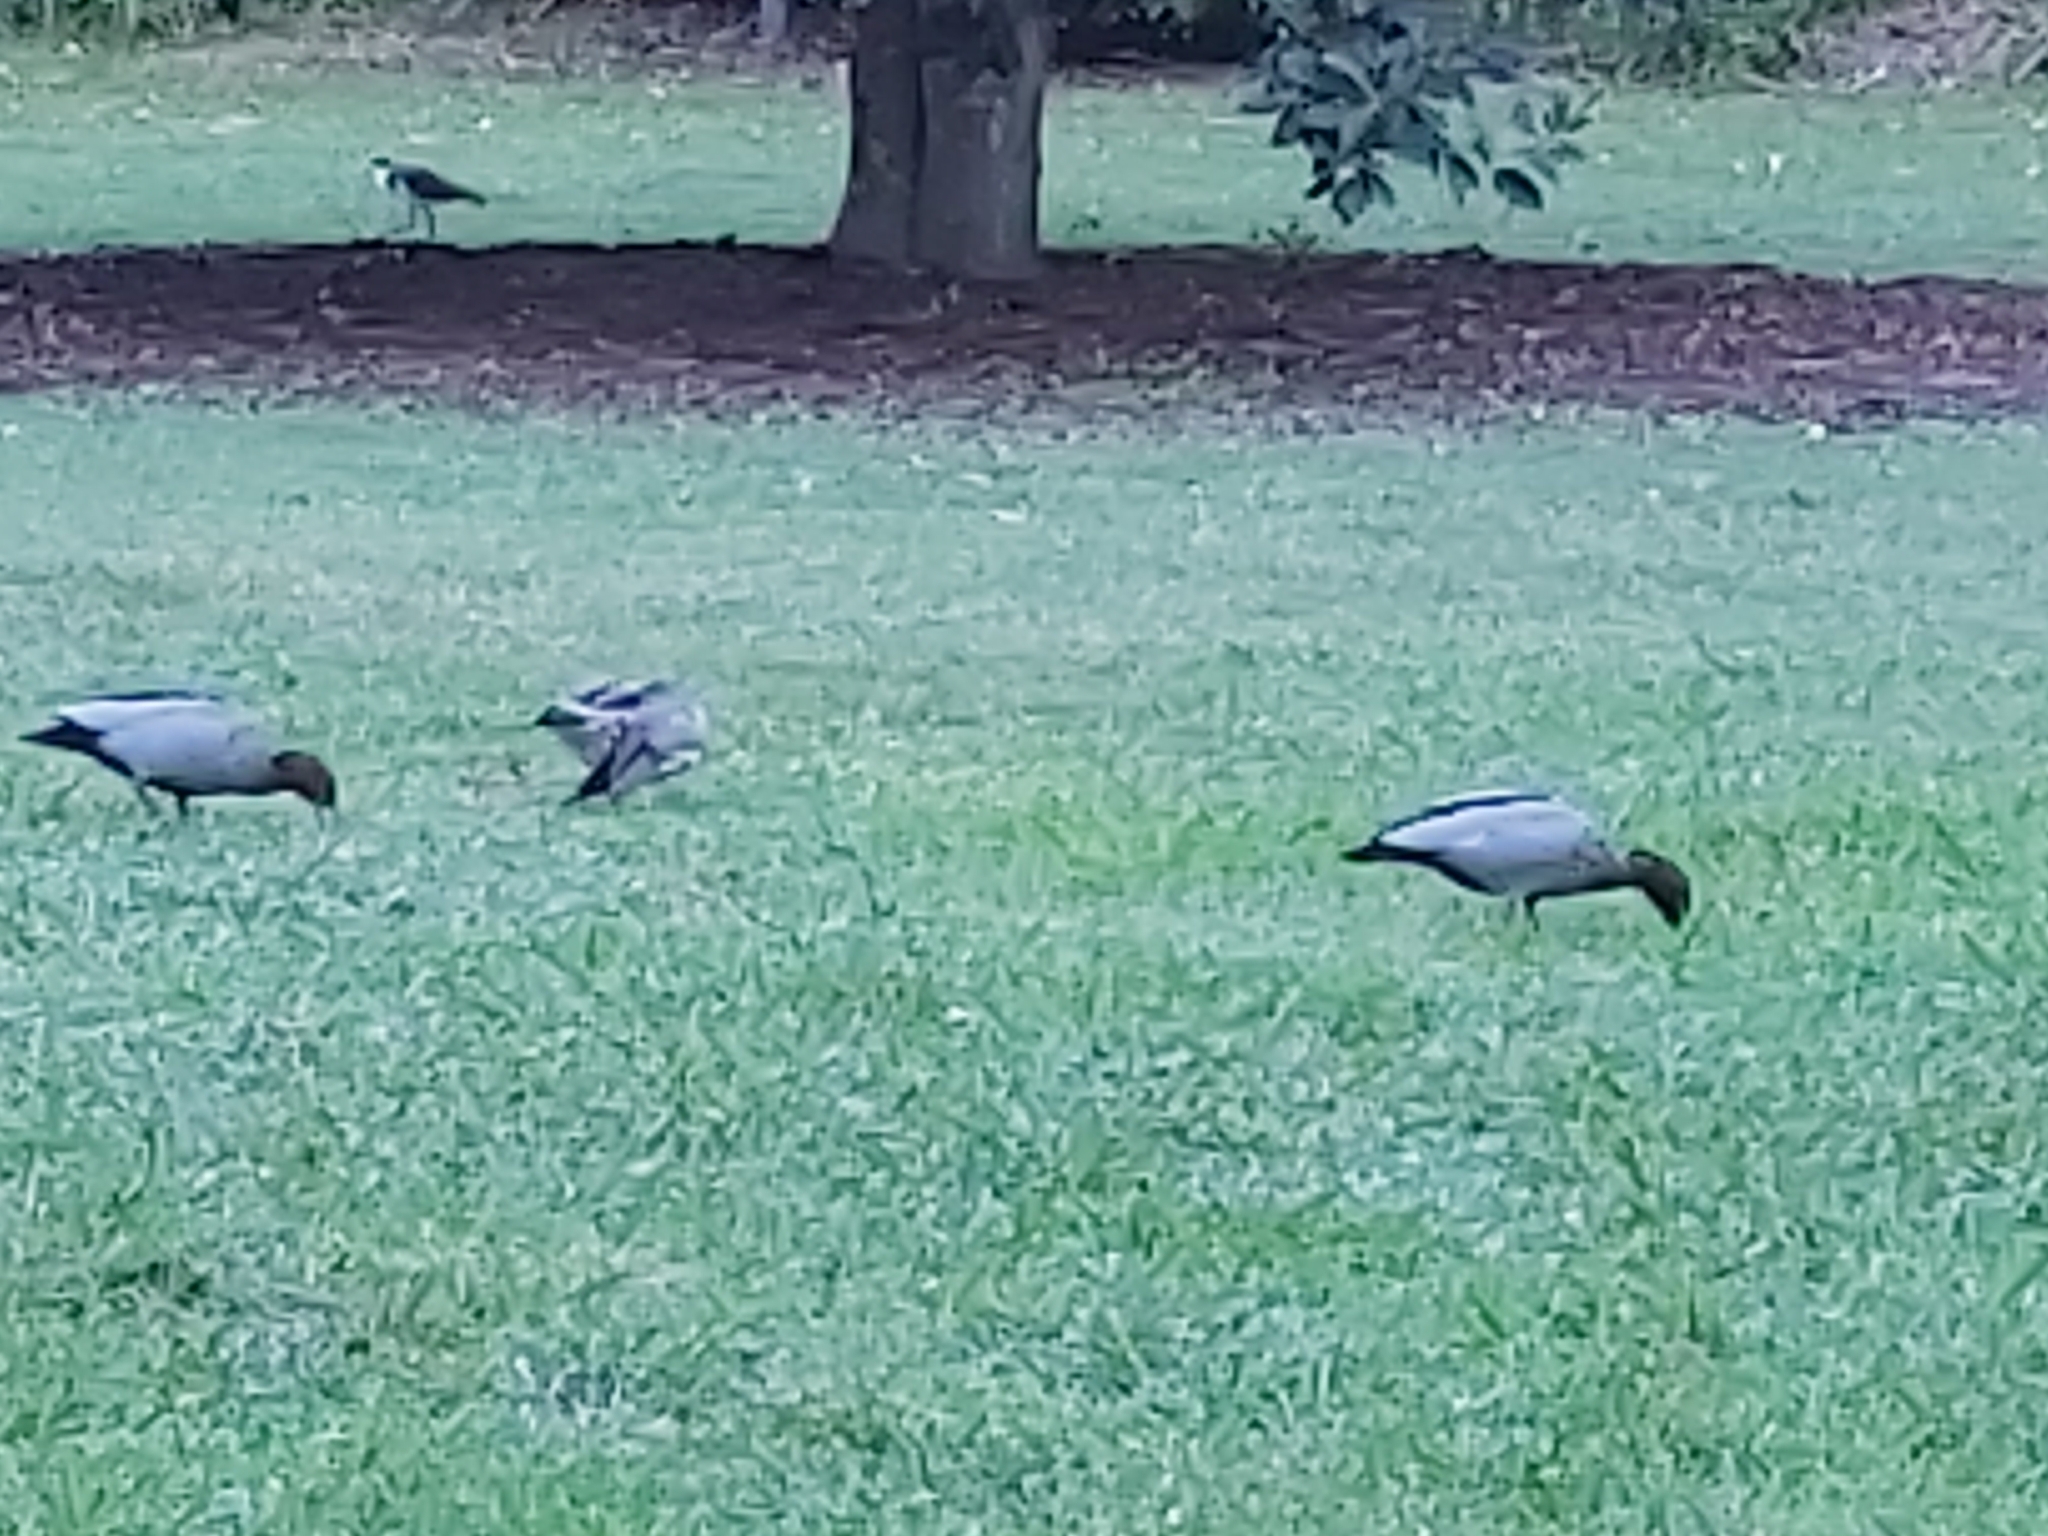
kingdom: Animalia
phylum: Chordata
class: Aves
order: Anseriformes
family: Anatidae
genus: Chenonetta
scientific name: Chenonetta jubata
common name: Maned duck
